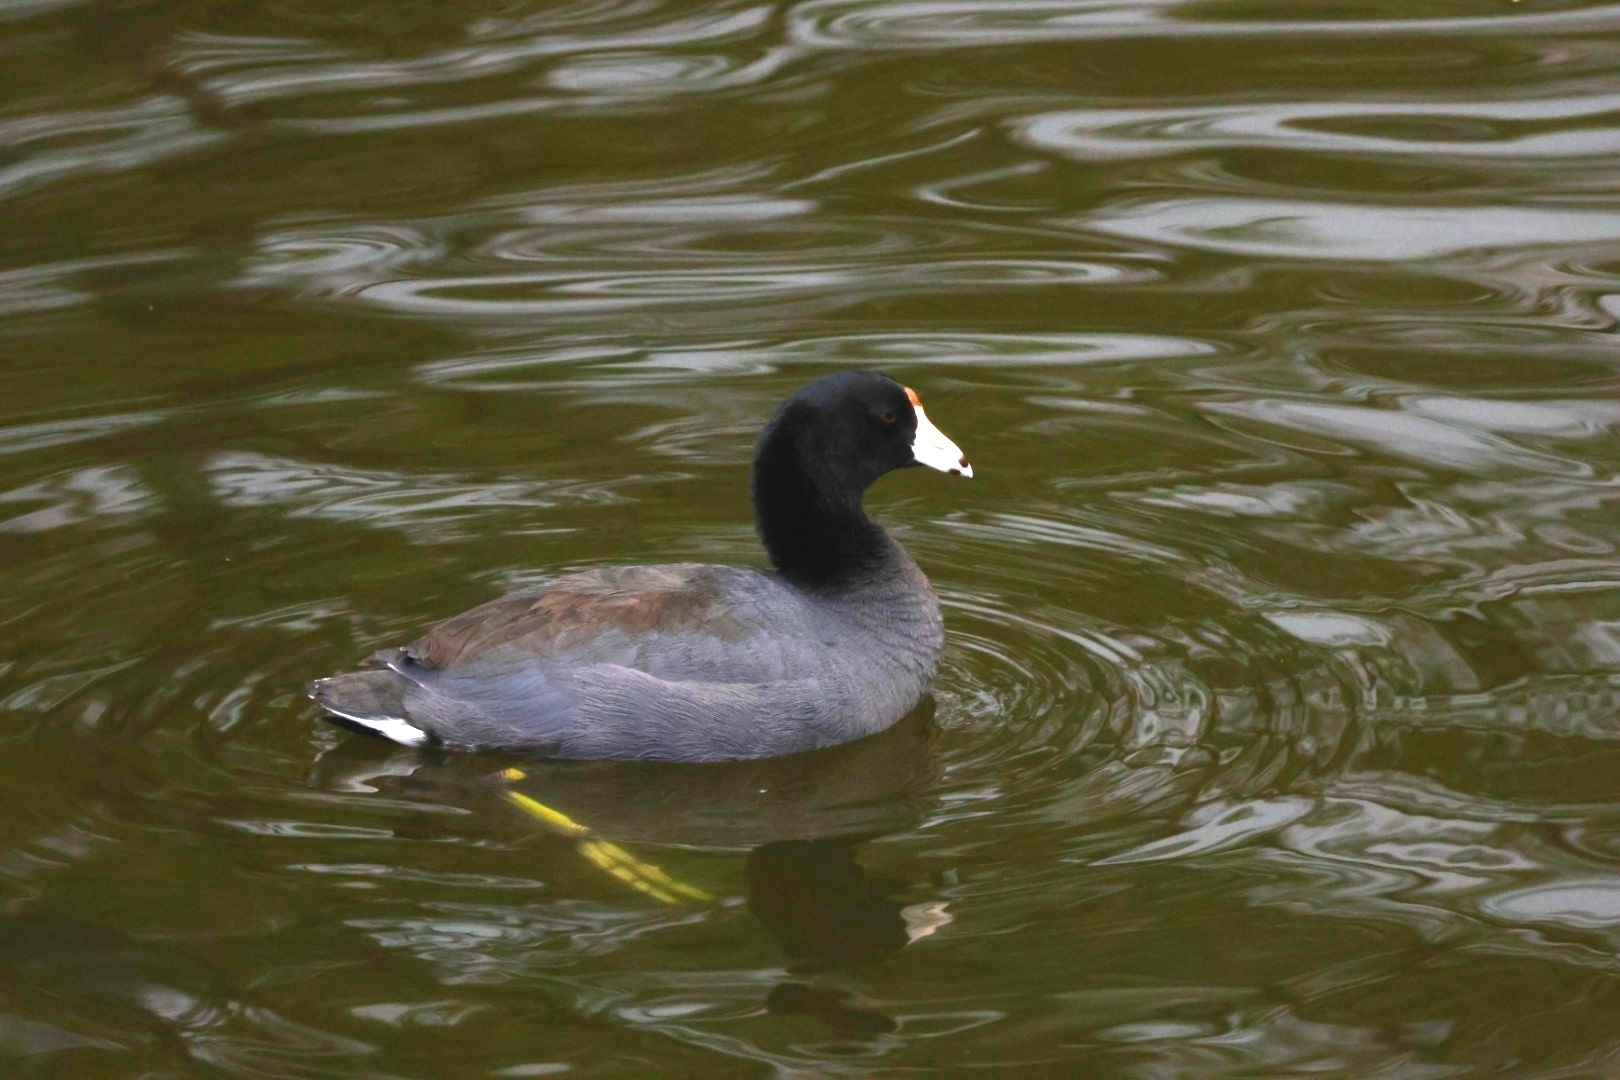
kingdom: Animalia
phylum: Chordata
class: Aves
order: Gruiformes
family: Rallidae
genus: Fulica
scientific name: Fulica americana
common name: American coot
